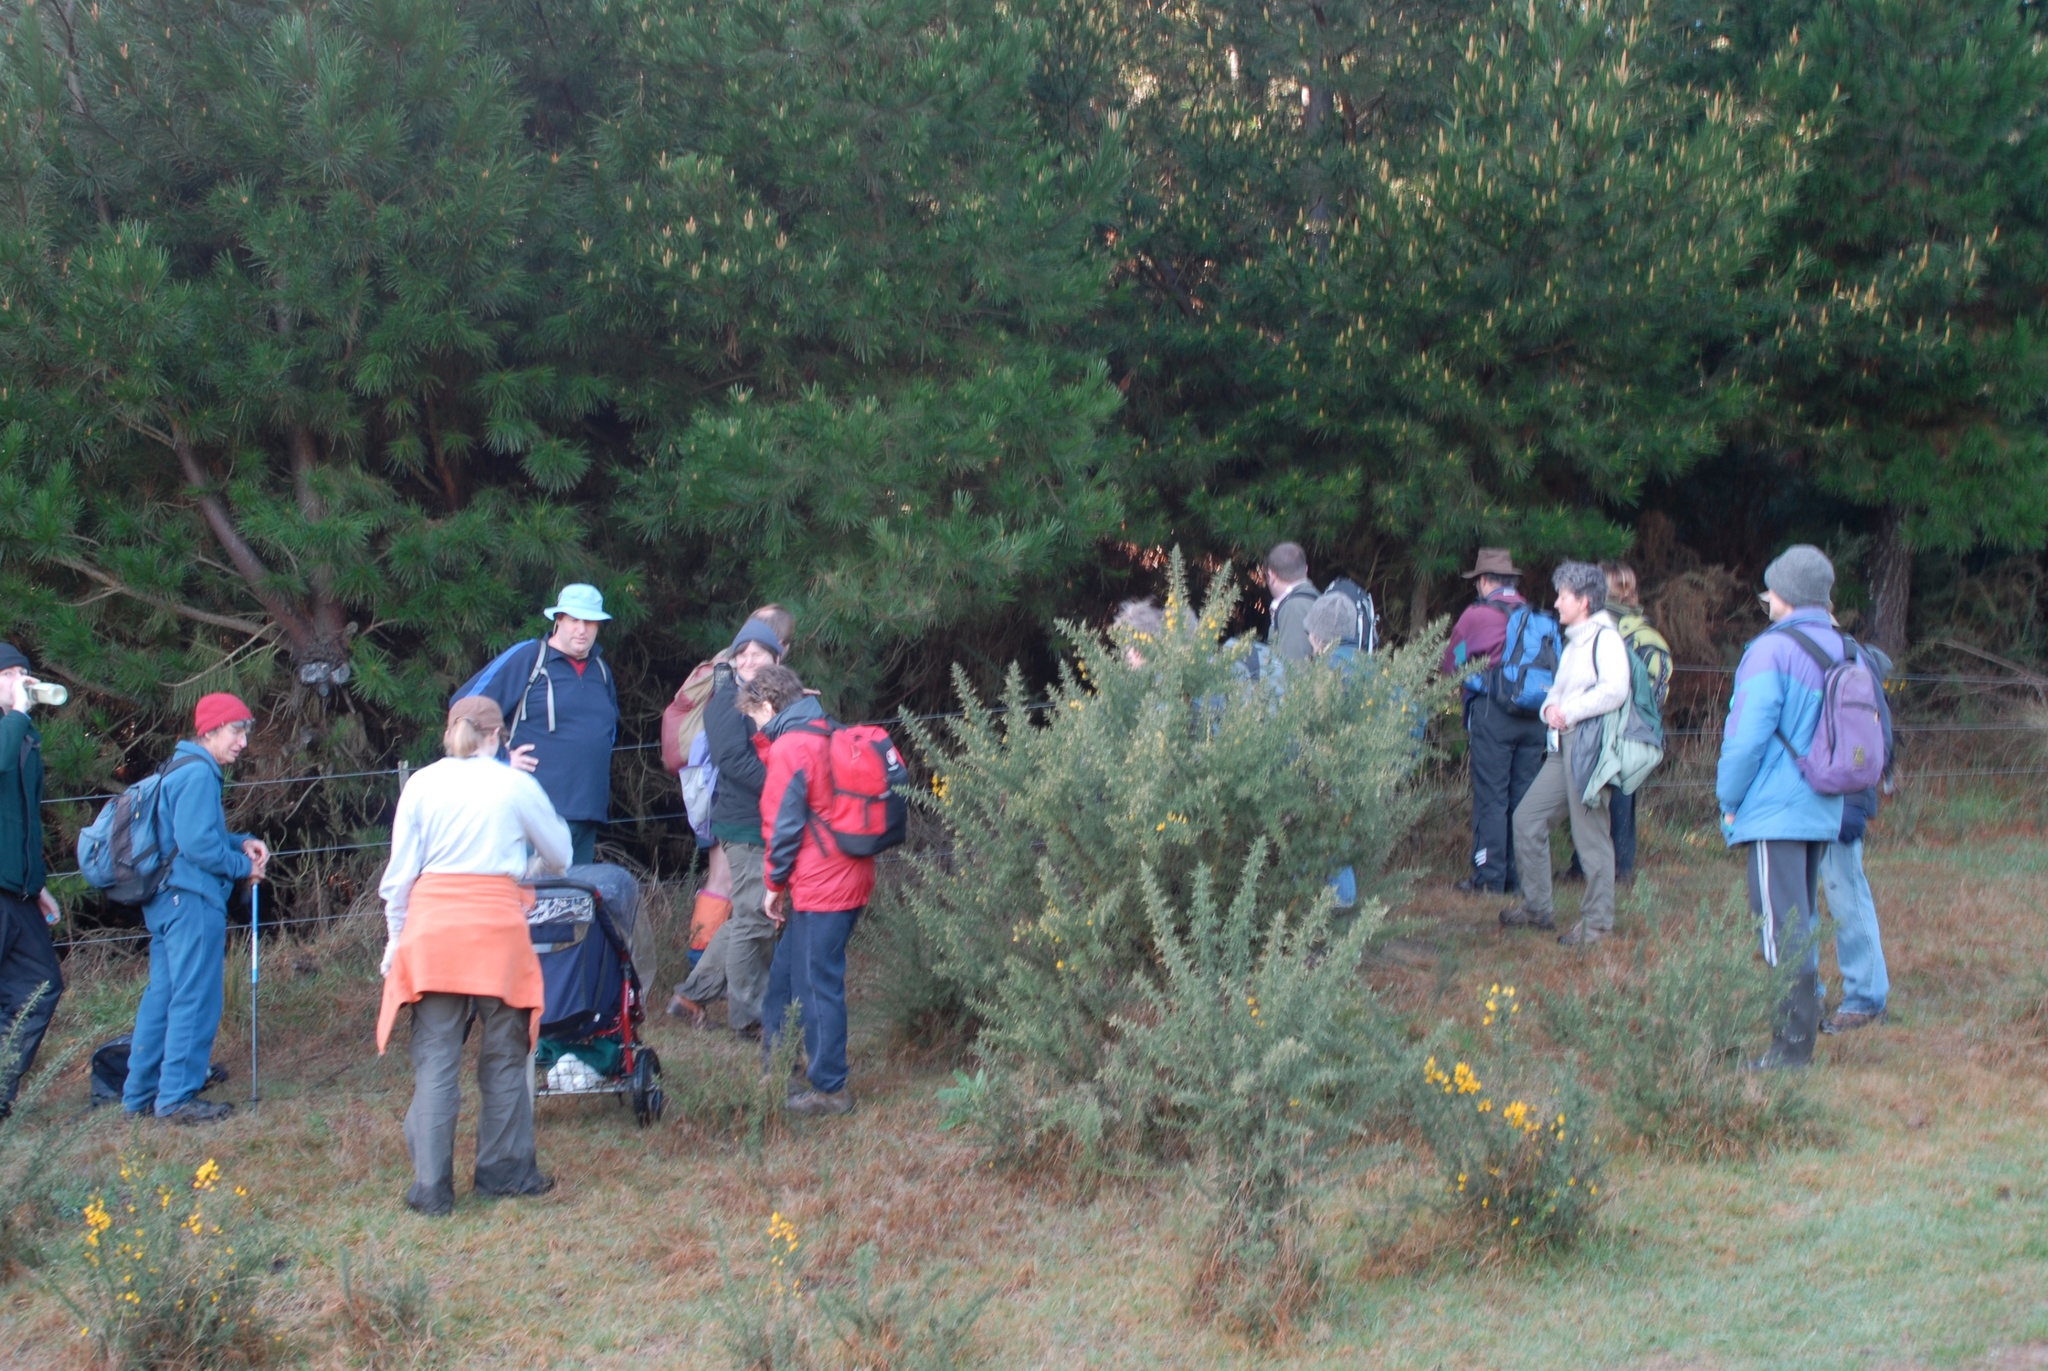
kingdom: Plantae
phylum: Tracheophyta
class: Magnoliopsida
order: Fabales
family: Fabaceae
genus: Ulex
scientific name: Ulex europaeus
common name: Common gorse
